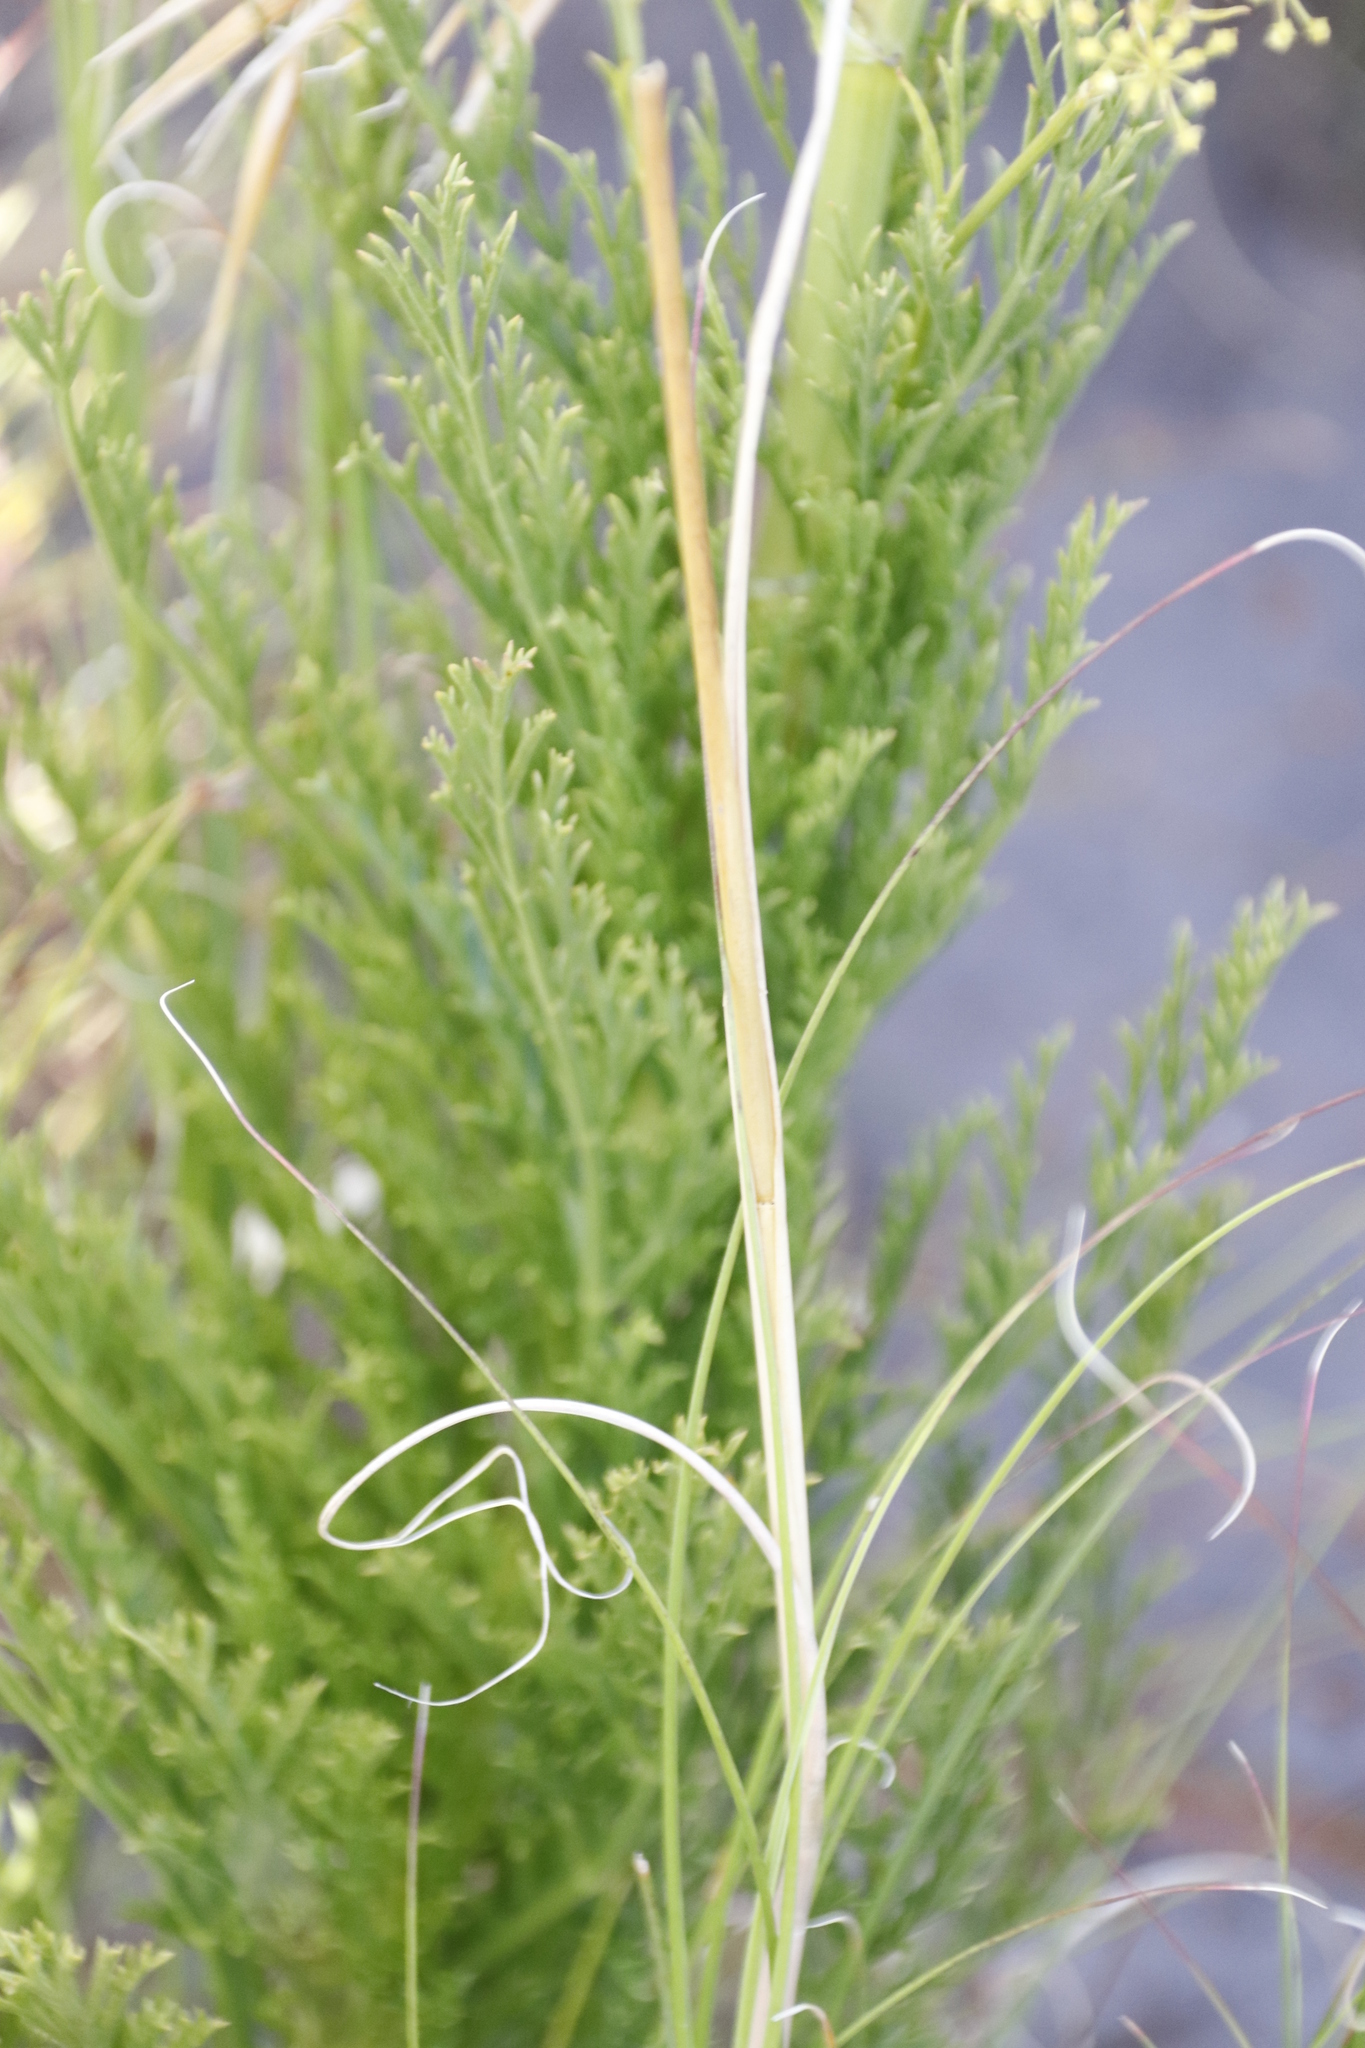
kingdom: Plantae
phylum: Tracheophyta
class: Magnoliopsida
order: Apiales
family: Apiaceae
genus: Glia
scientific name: Glia prolifera
